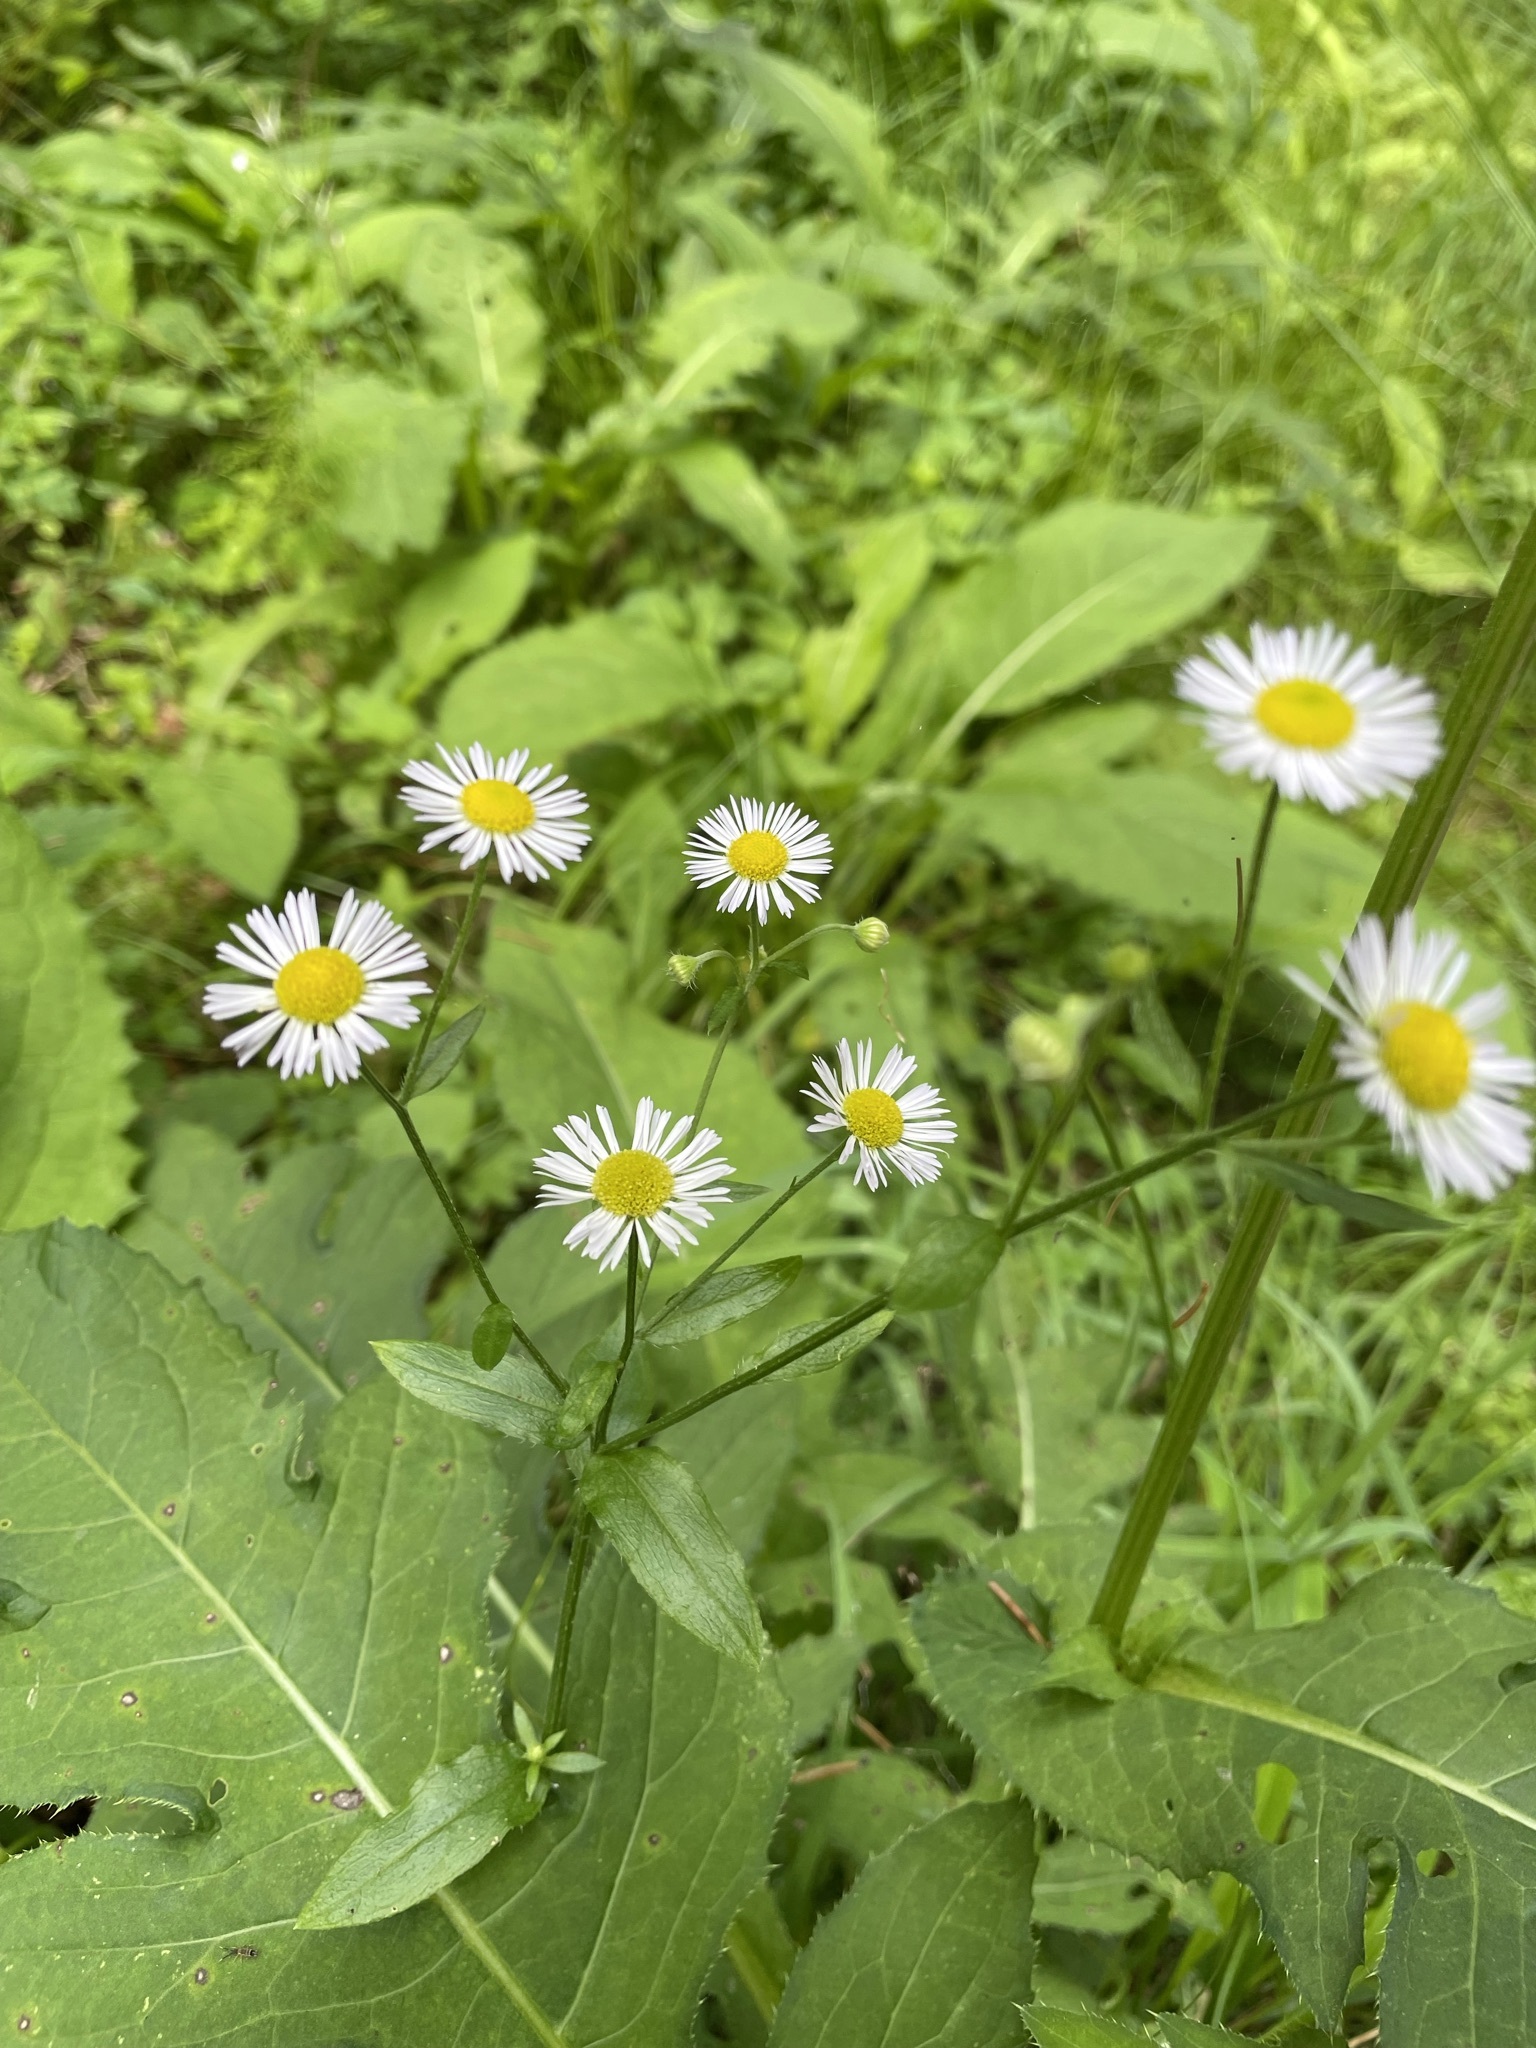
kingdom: Plantae
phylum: Tracheophyta
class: Magnoliopsida
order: Asterales
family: Asteraceae
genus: Erigeron
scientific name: Erigeron annuus
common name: Tall fleabane
